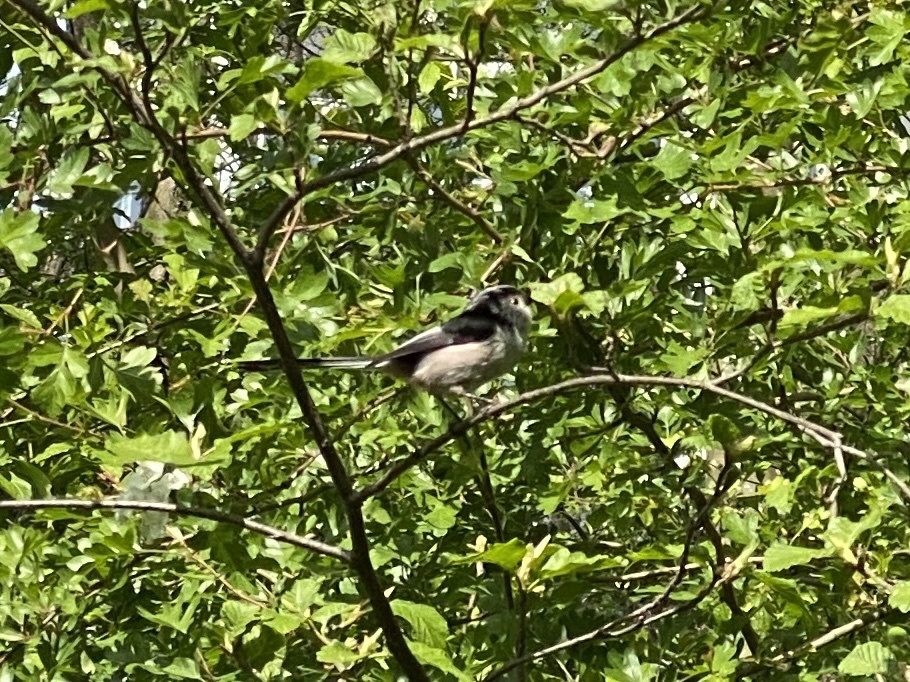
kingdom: Animalia
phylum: Chordata
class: Aves
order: Passeriformes
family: Aegithalidae
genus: Aegithalos
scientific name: Aegithalos caudatus
